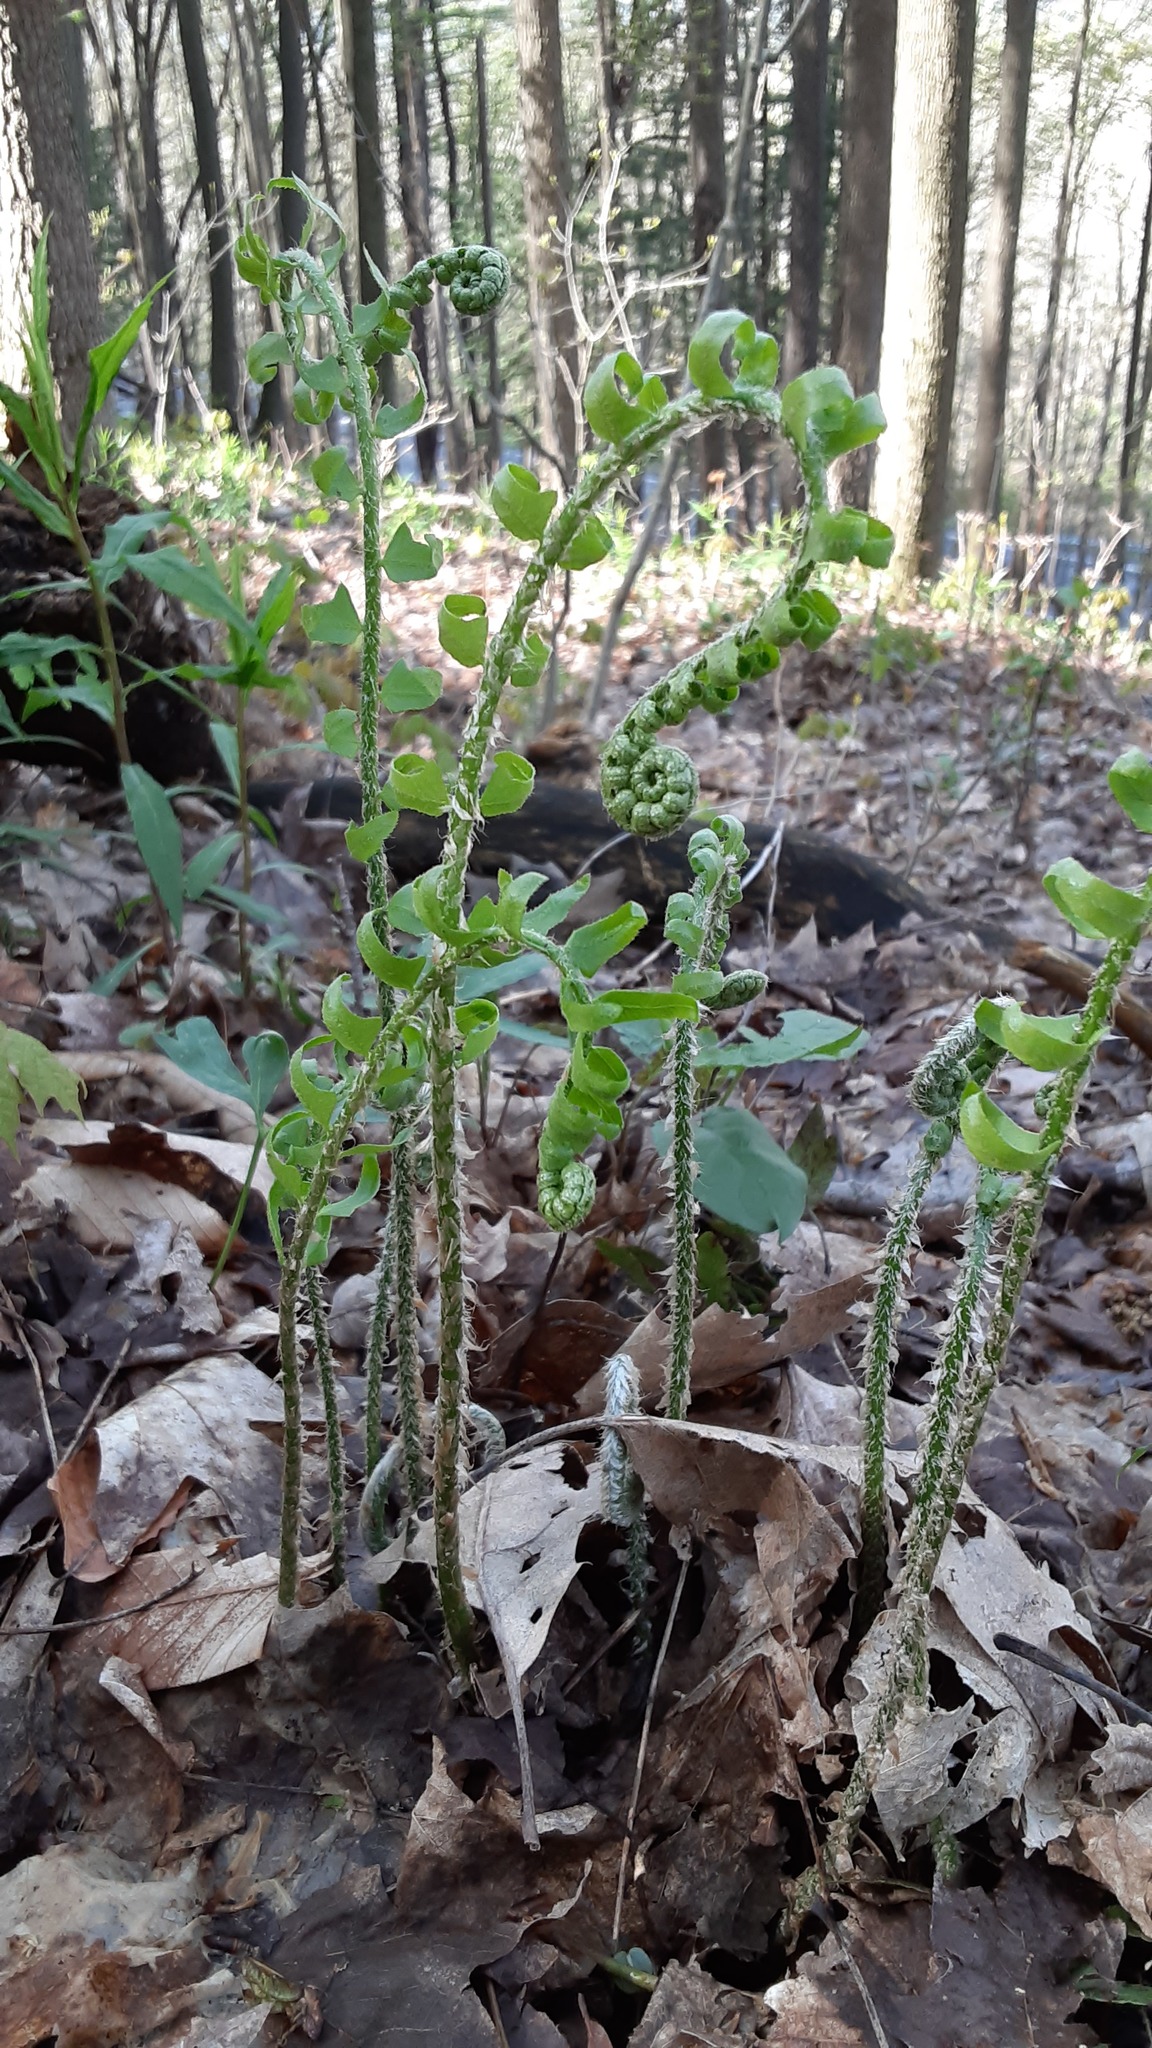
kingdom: Plantae
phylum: Tracheophyta
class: Polypodiopsida
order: Polypodiales
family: Dryopteridaceae
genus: Polystichum
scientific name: Polystichum acrostichoides
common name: Christmas fern
